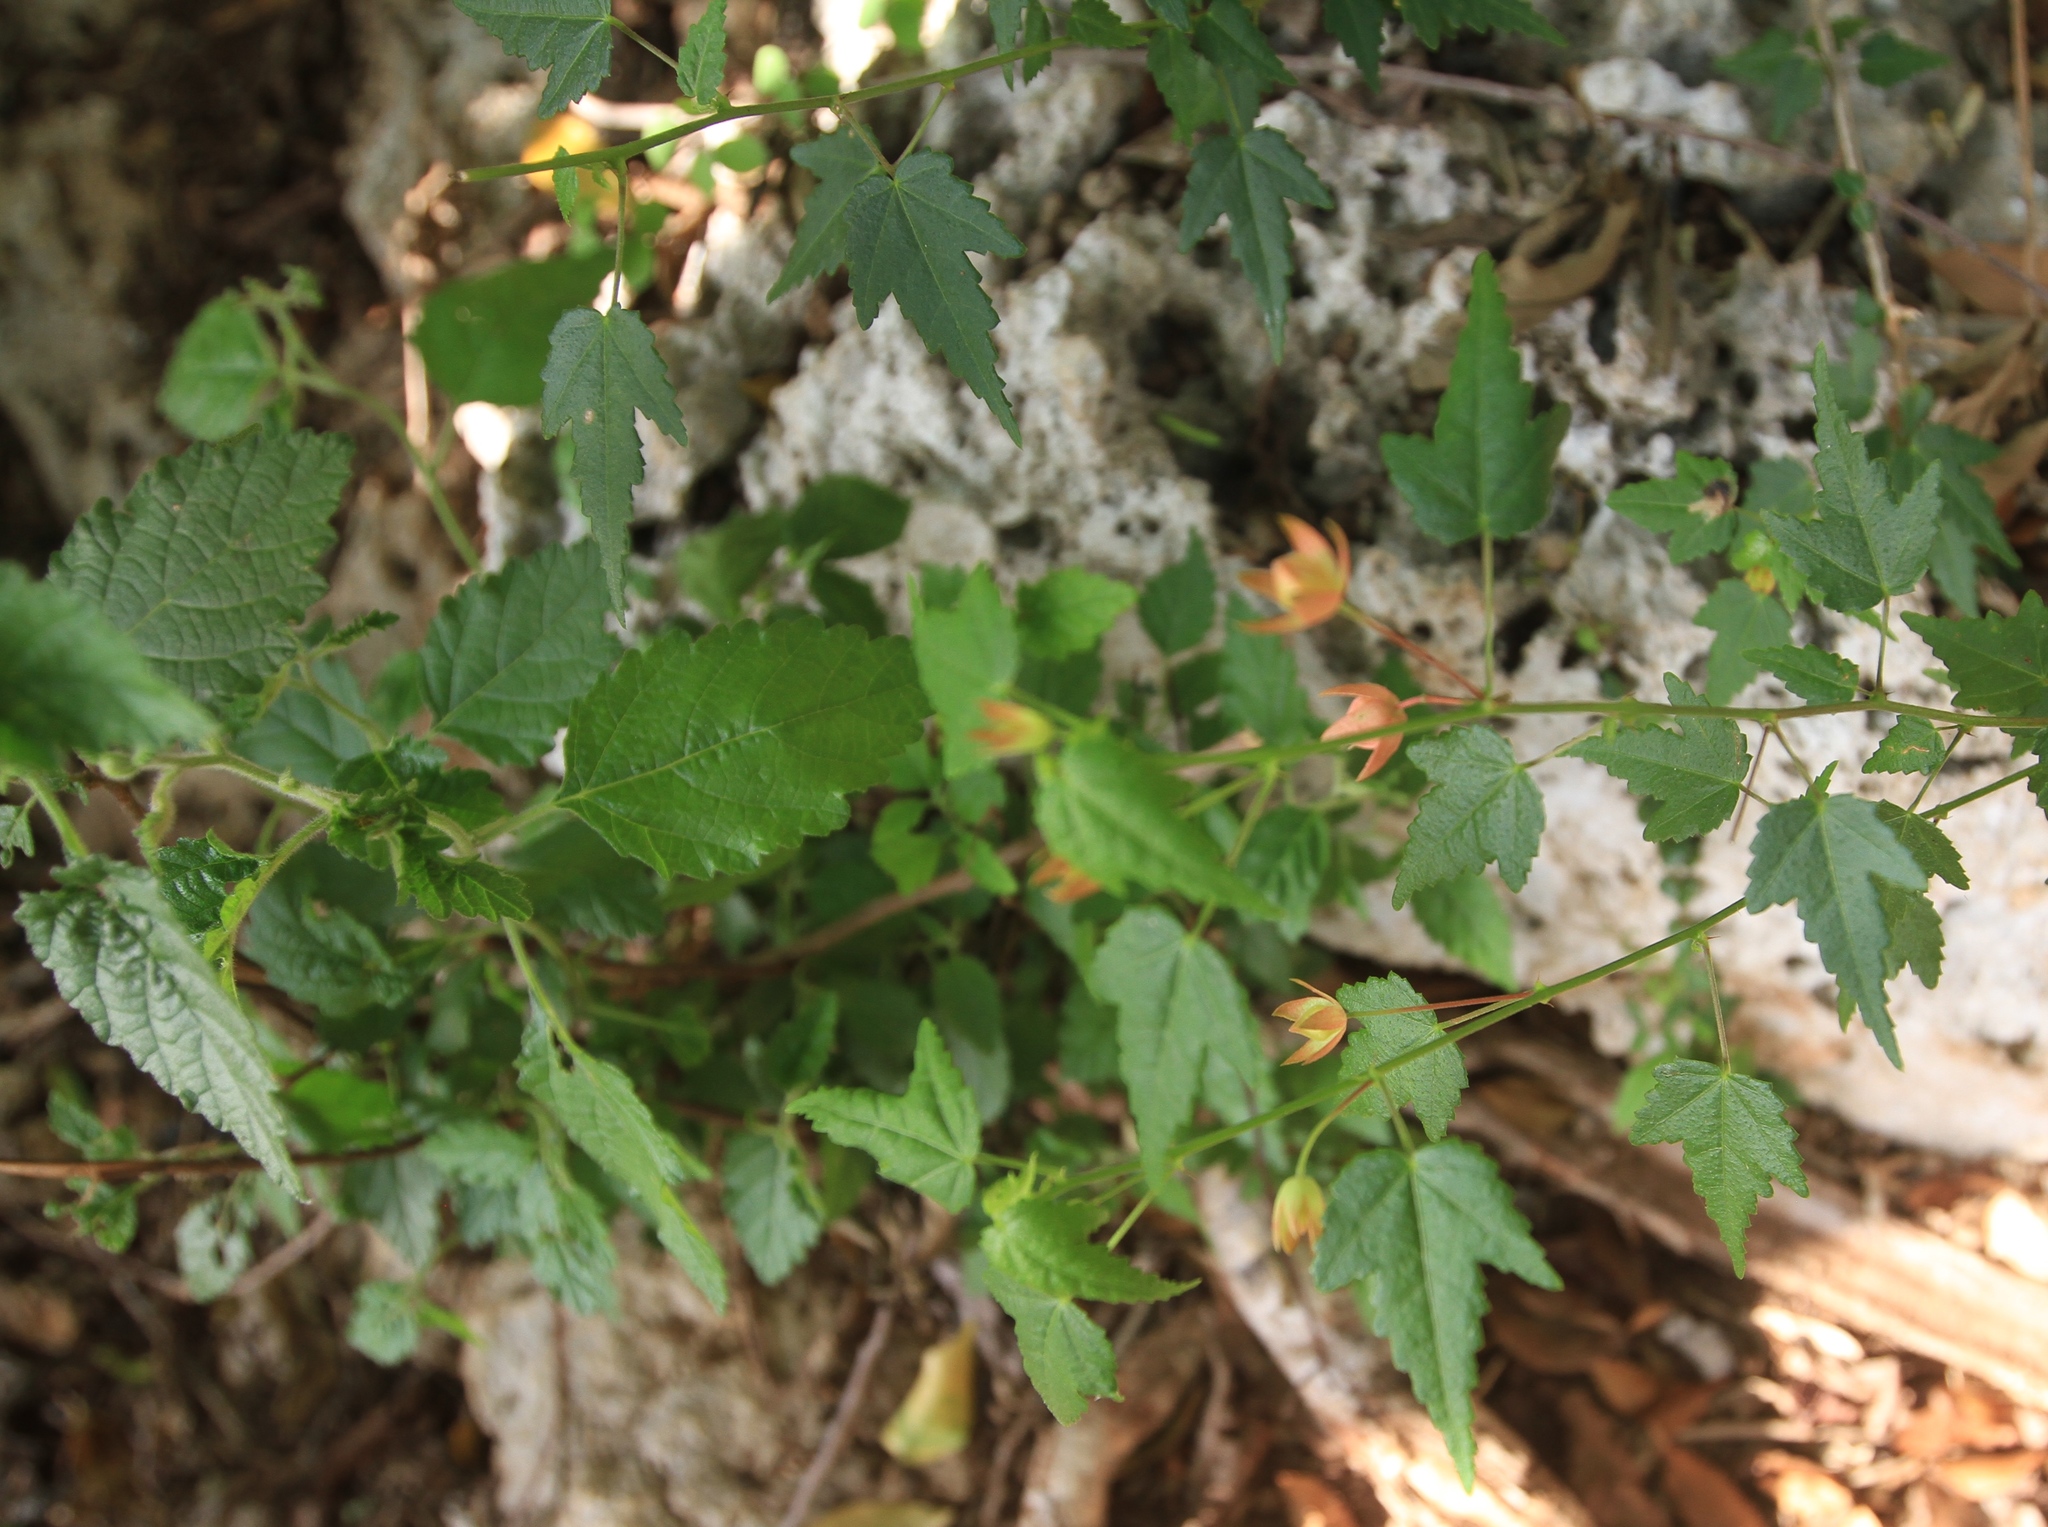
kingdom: Plantae
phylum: Tracheophyta
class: Magnoliopsida
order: Malvales
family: Malvaceae
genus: Pavonia
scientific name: Pavonia punctata
